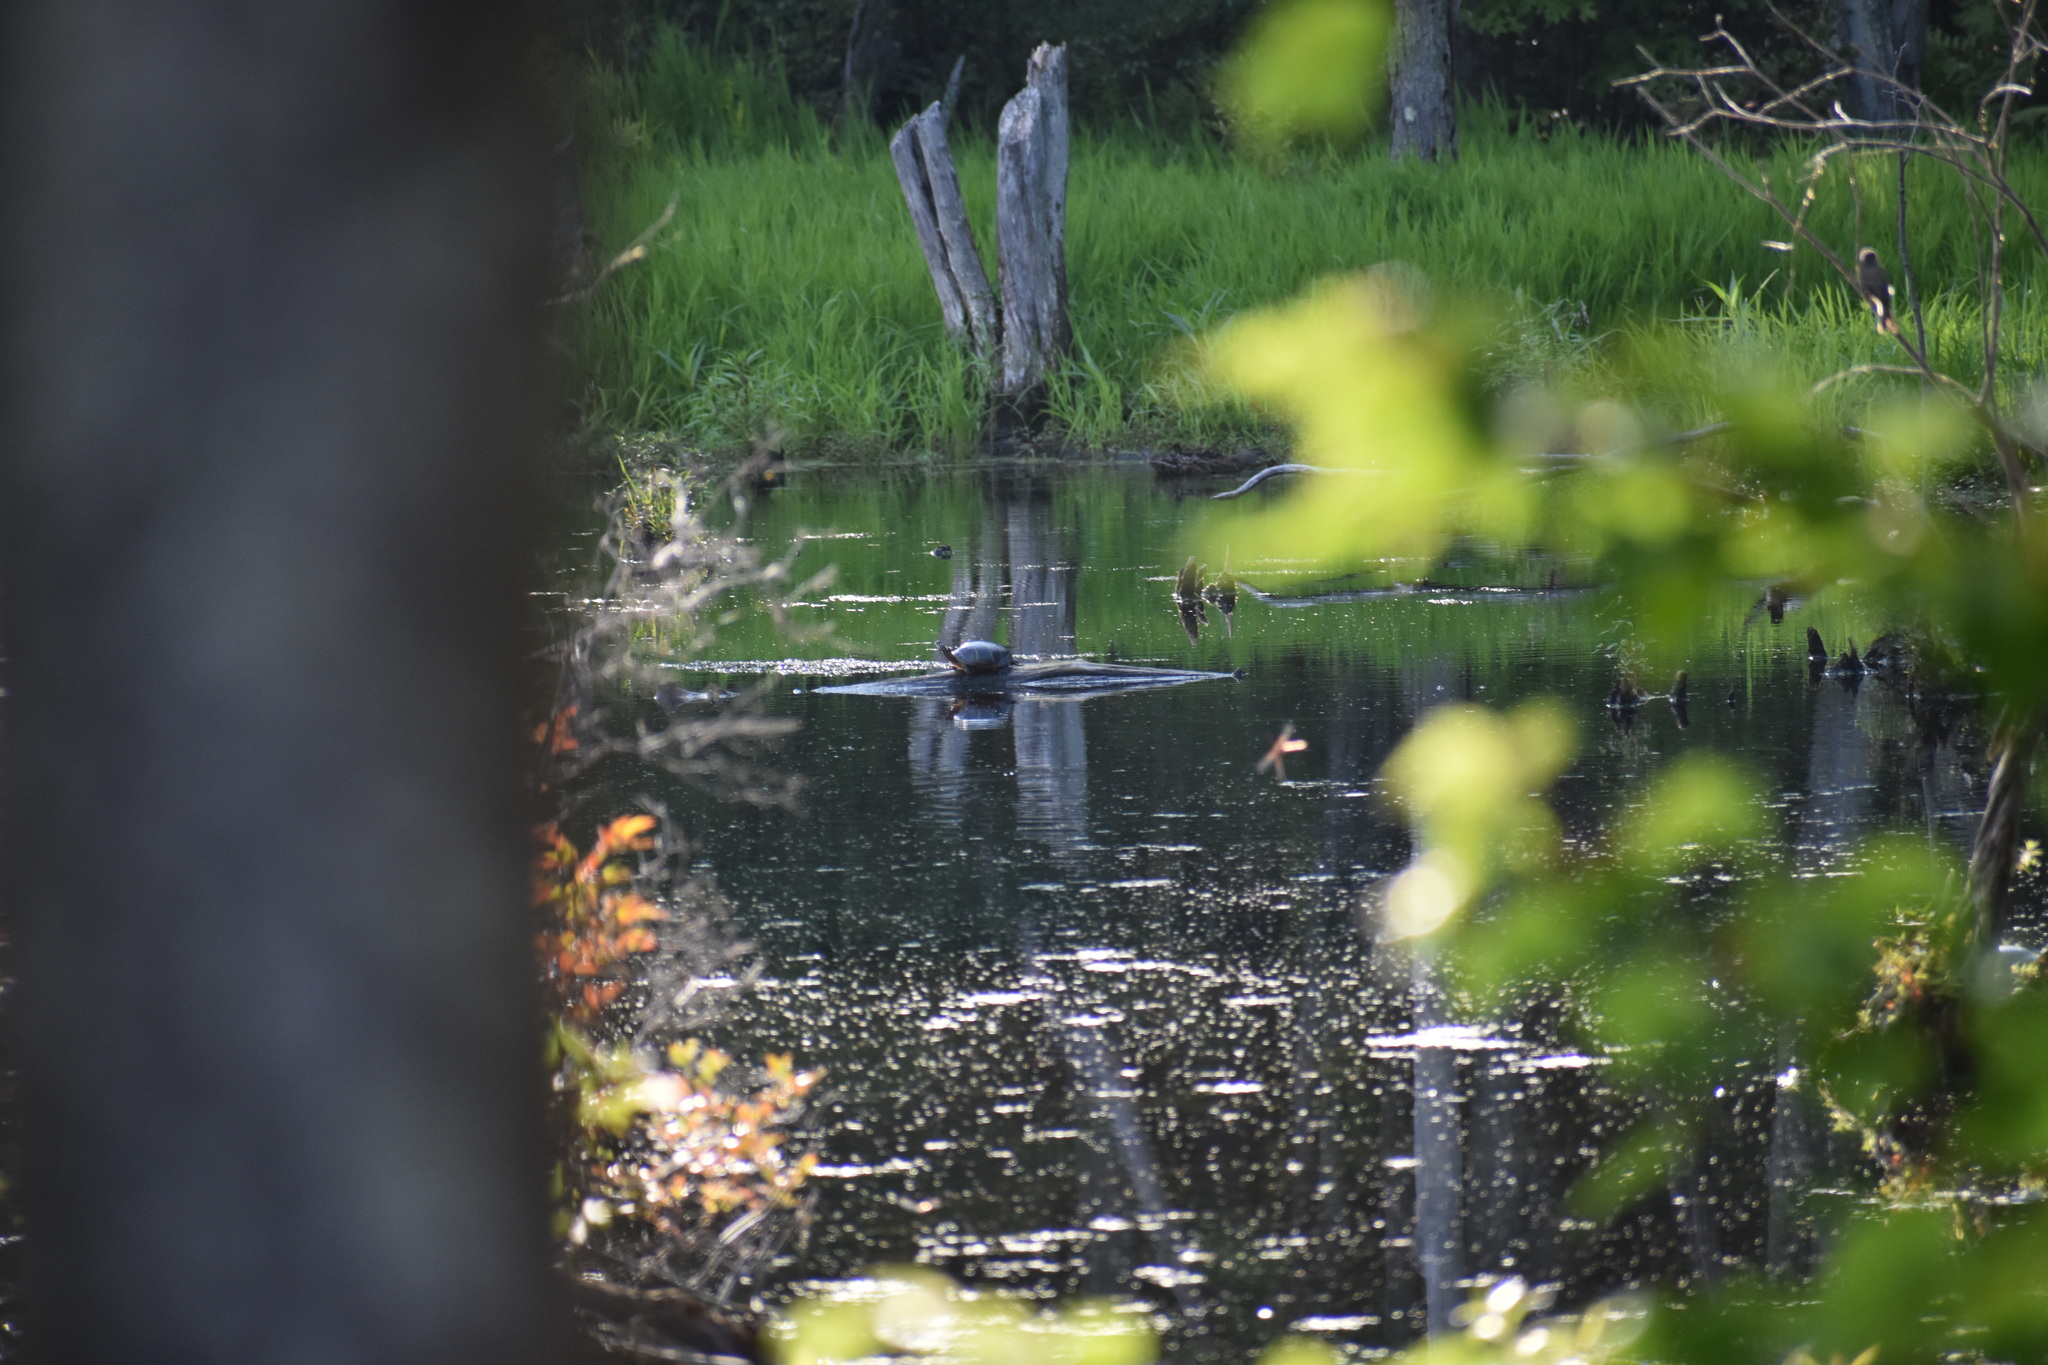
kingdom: Animalia
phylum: Chordata
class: Testudines
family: Emydidae
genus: Chrysemys
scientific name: Chrysemys picta
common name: Painted turtle
